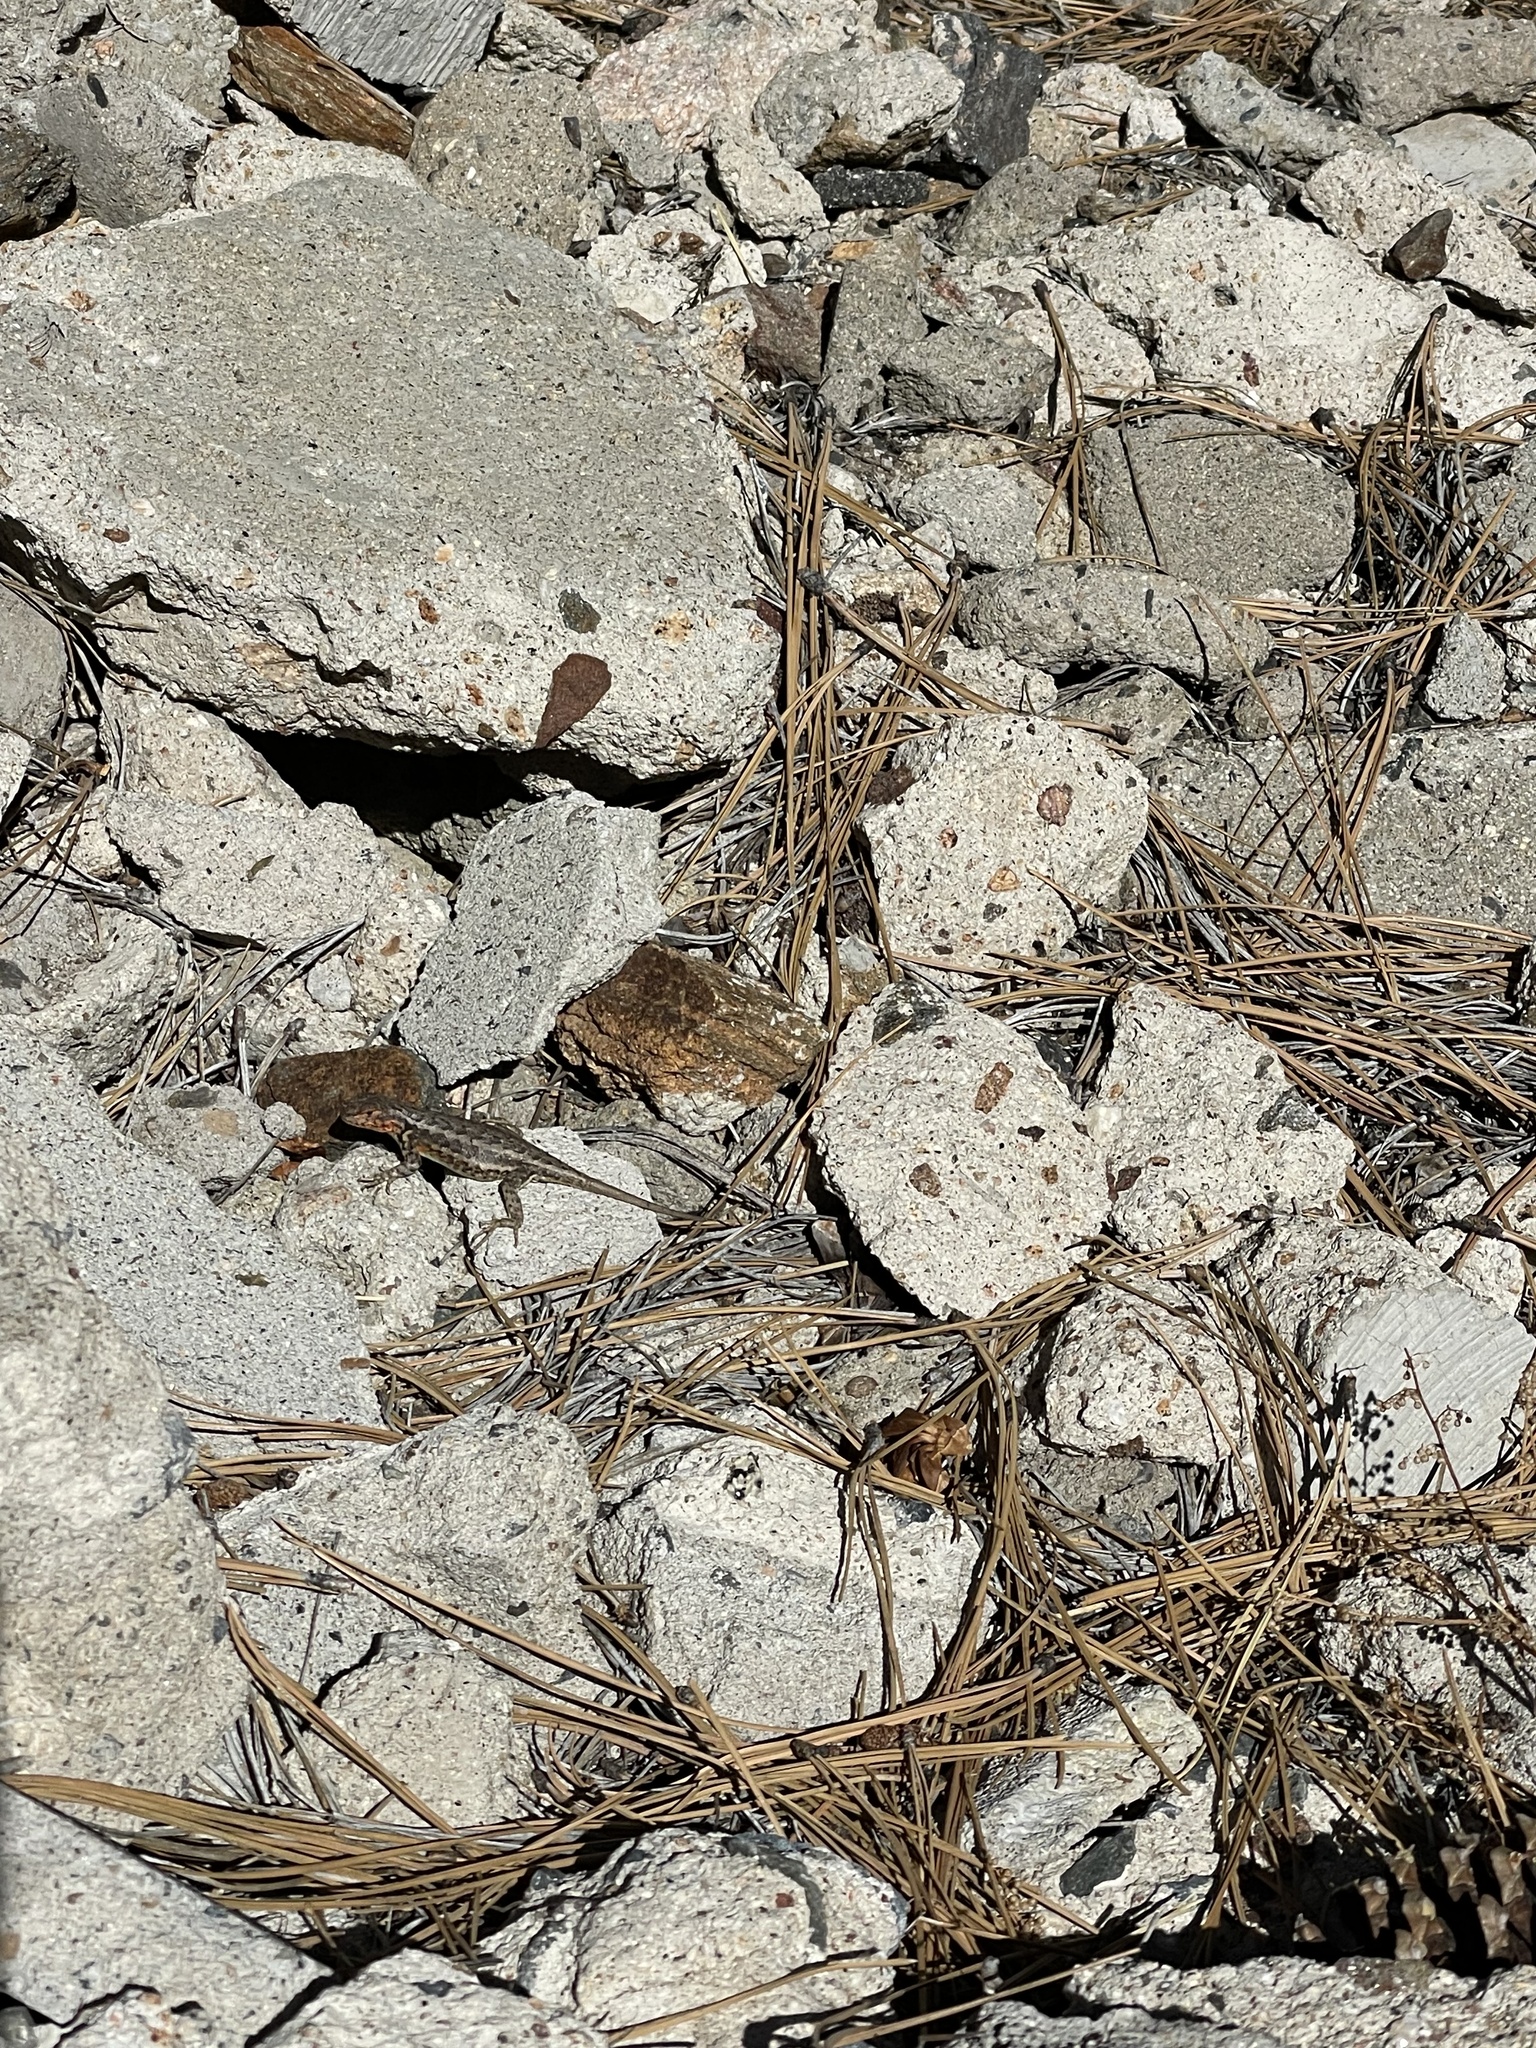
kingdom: Animalia
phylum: Chordata
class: Squamata
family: Phrynosomatidae
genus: Sceloporus
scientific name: Sceloporus graciosus
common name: Sagebrush lizard
